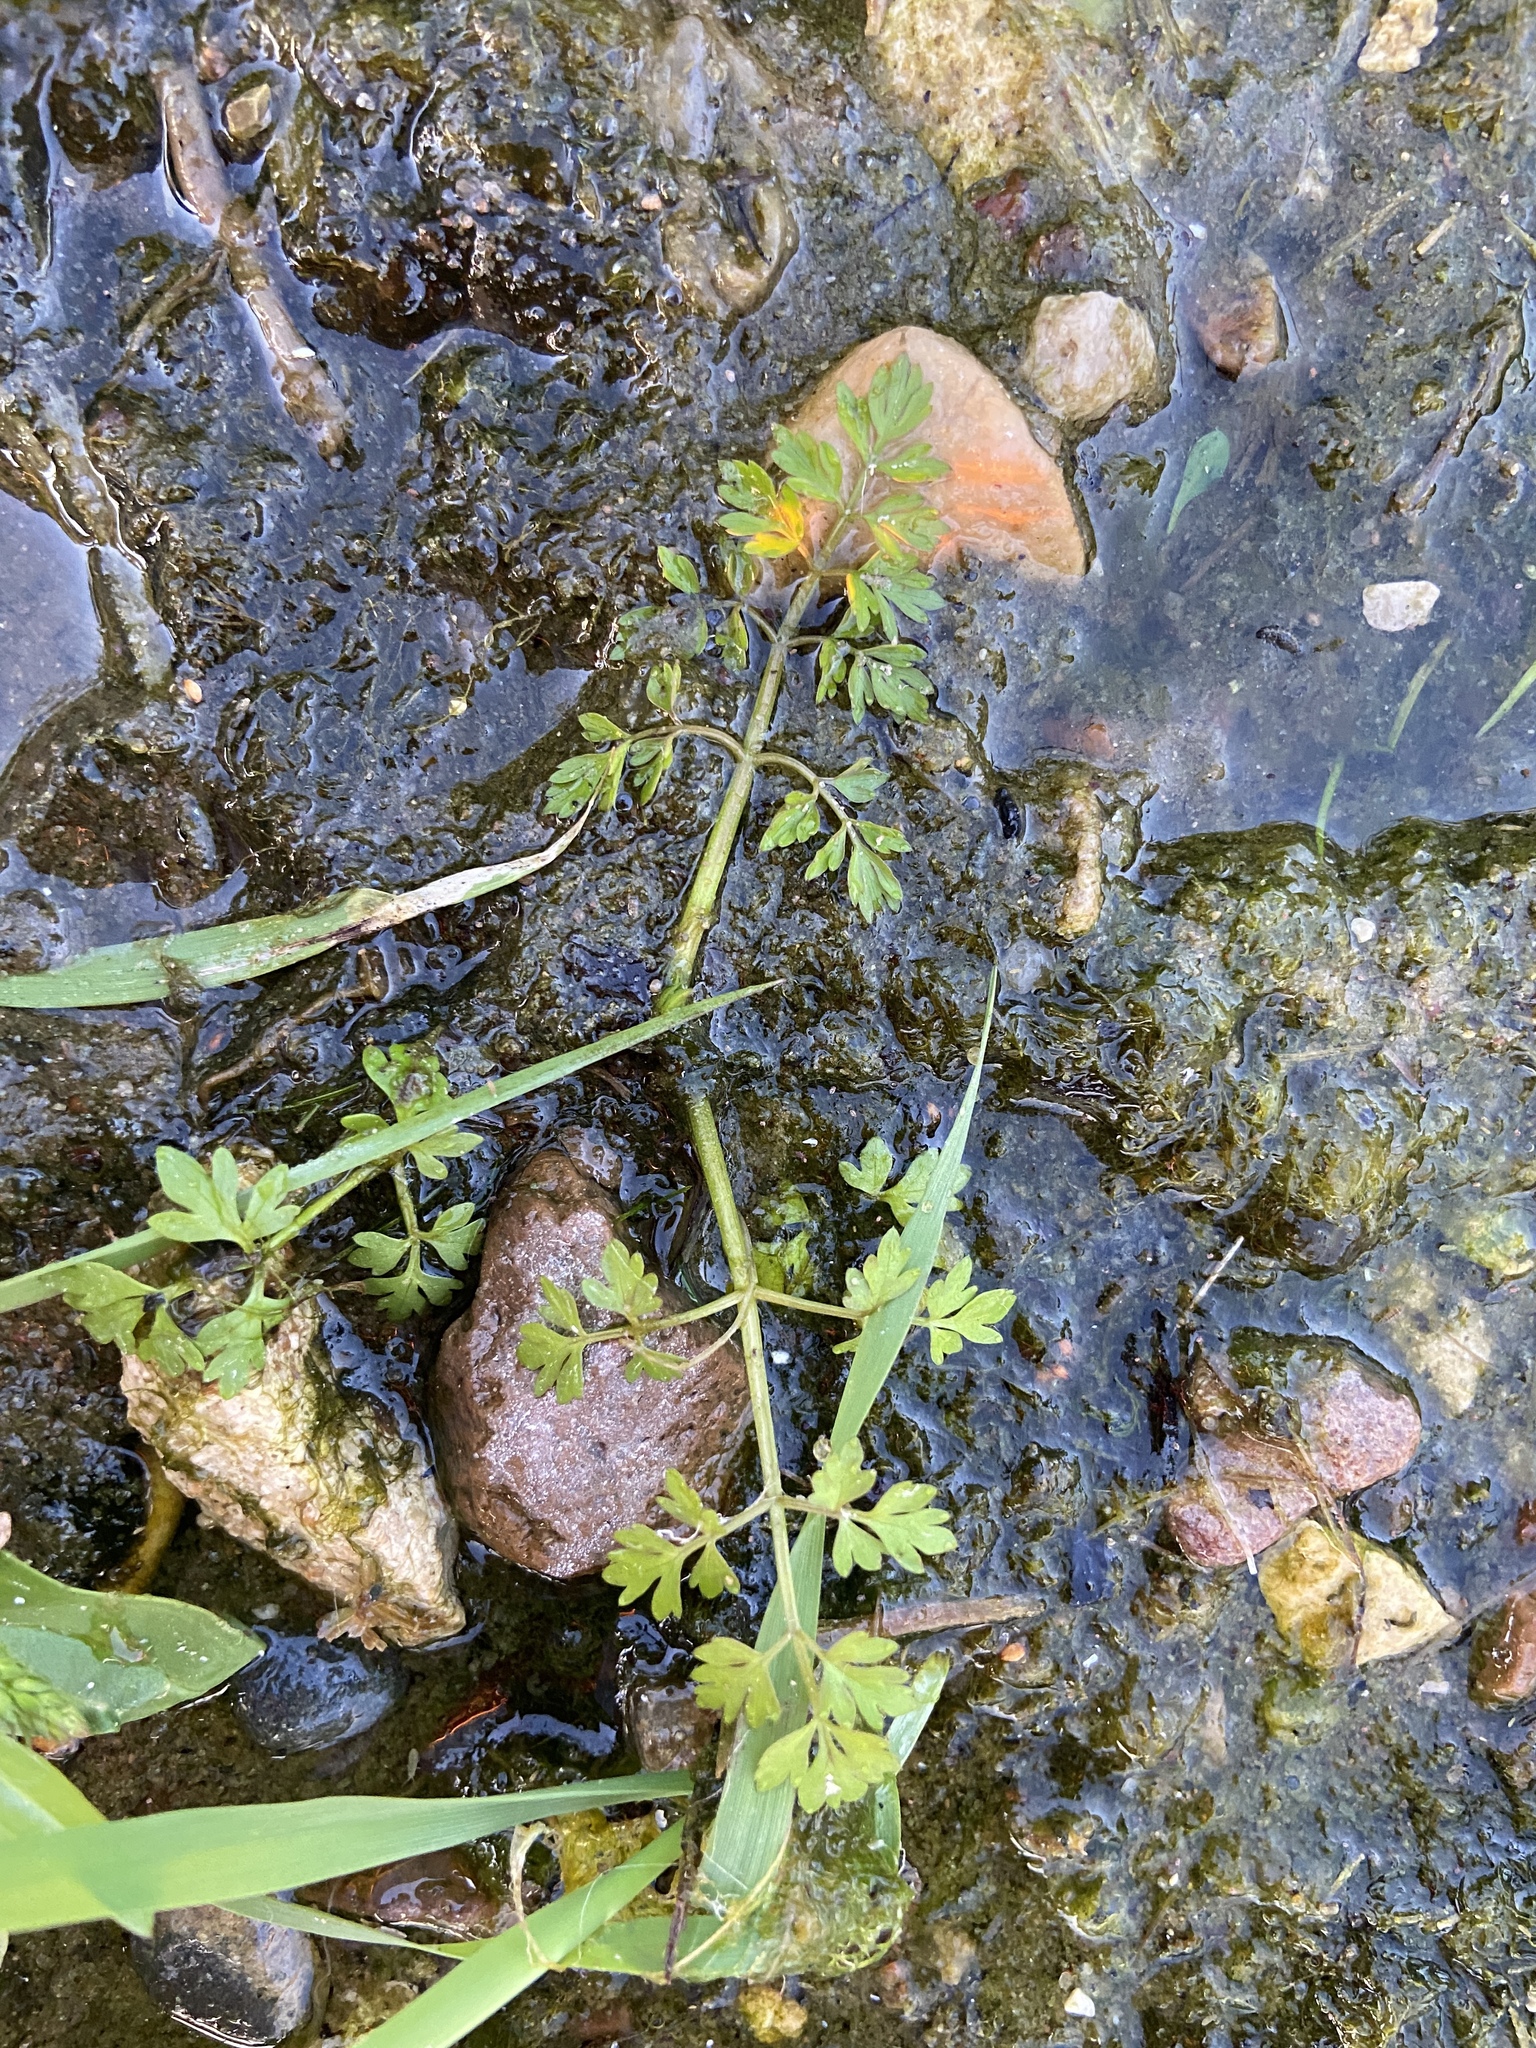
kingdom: Plantae
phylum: Tracheophyta
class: Magnoliopsida
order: Apiales
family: Apiaceae
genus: Oenanthe
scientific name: Oenanthe aquatica
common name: Fine-leaved water-dropwort
